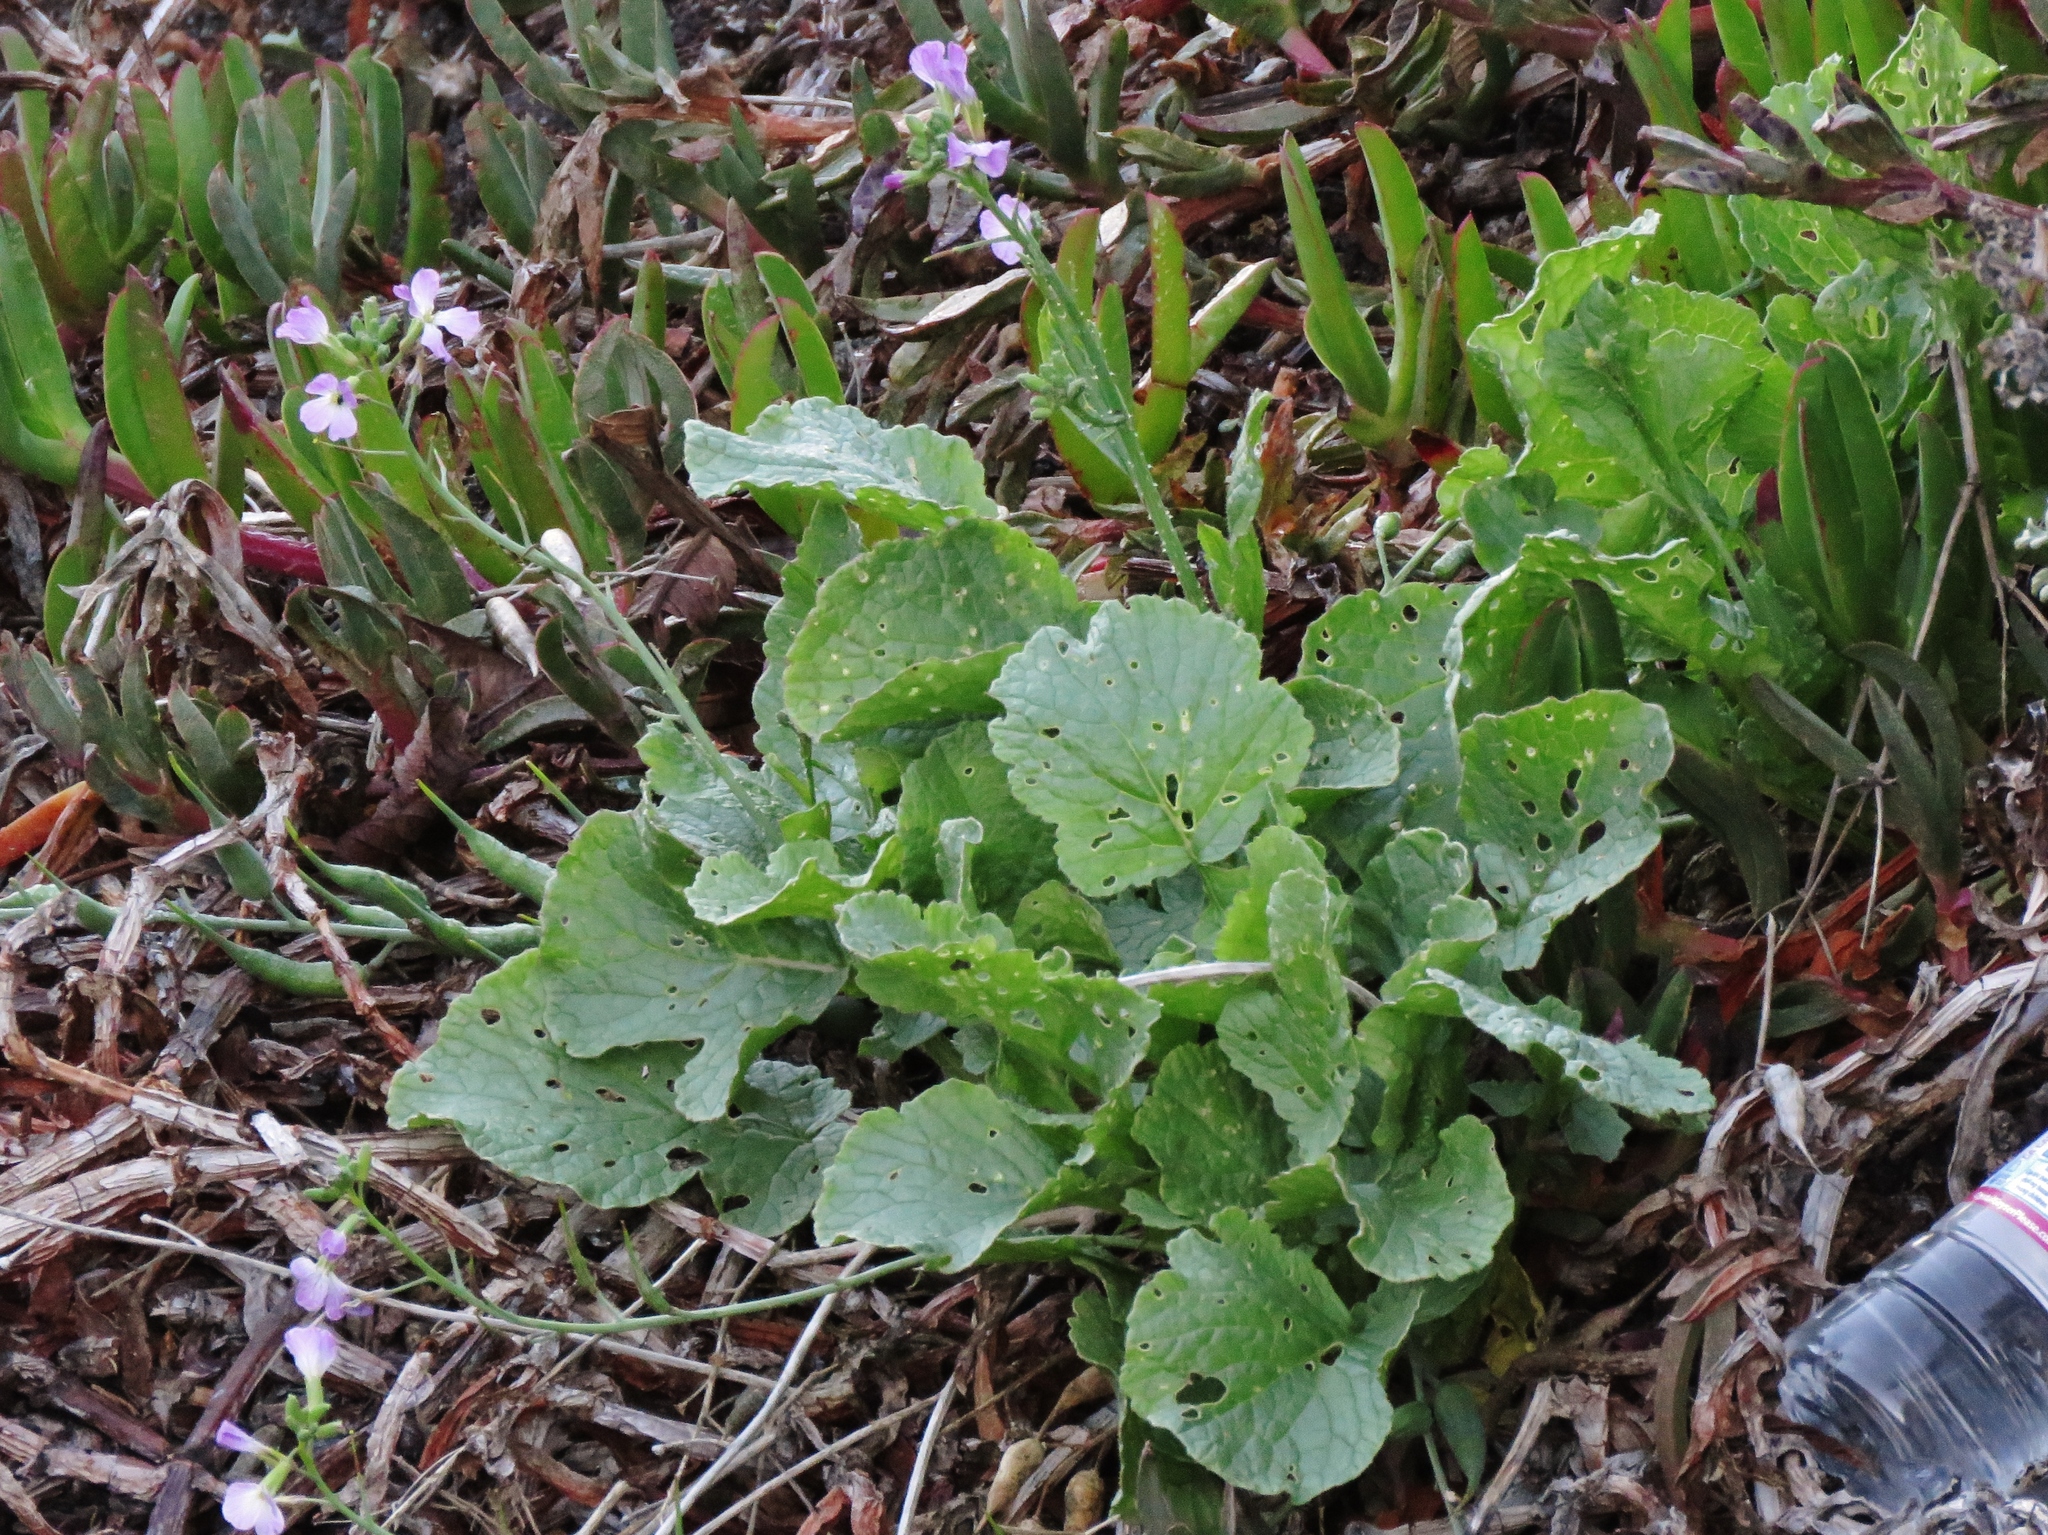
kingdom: Plantae
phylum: Tracheophyta
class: Magnoliopsida
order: Brassicales
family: Brassicaceae
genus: Raphanus
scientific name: Raphanus sativus
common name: Cultivated radish
